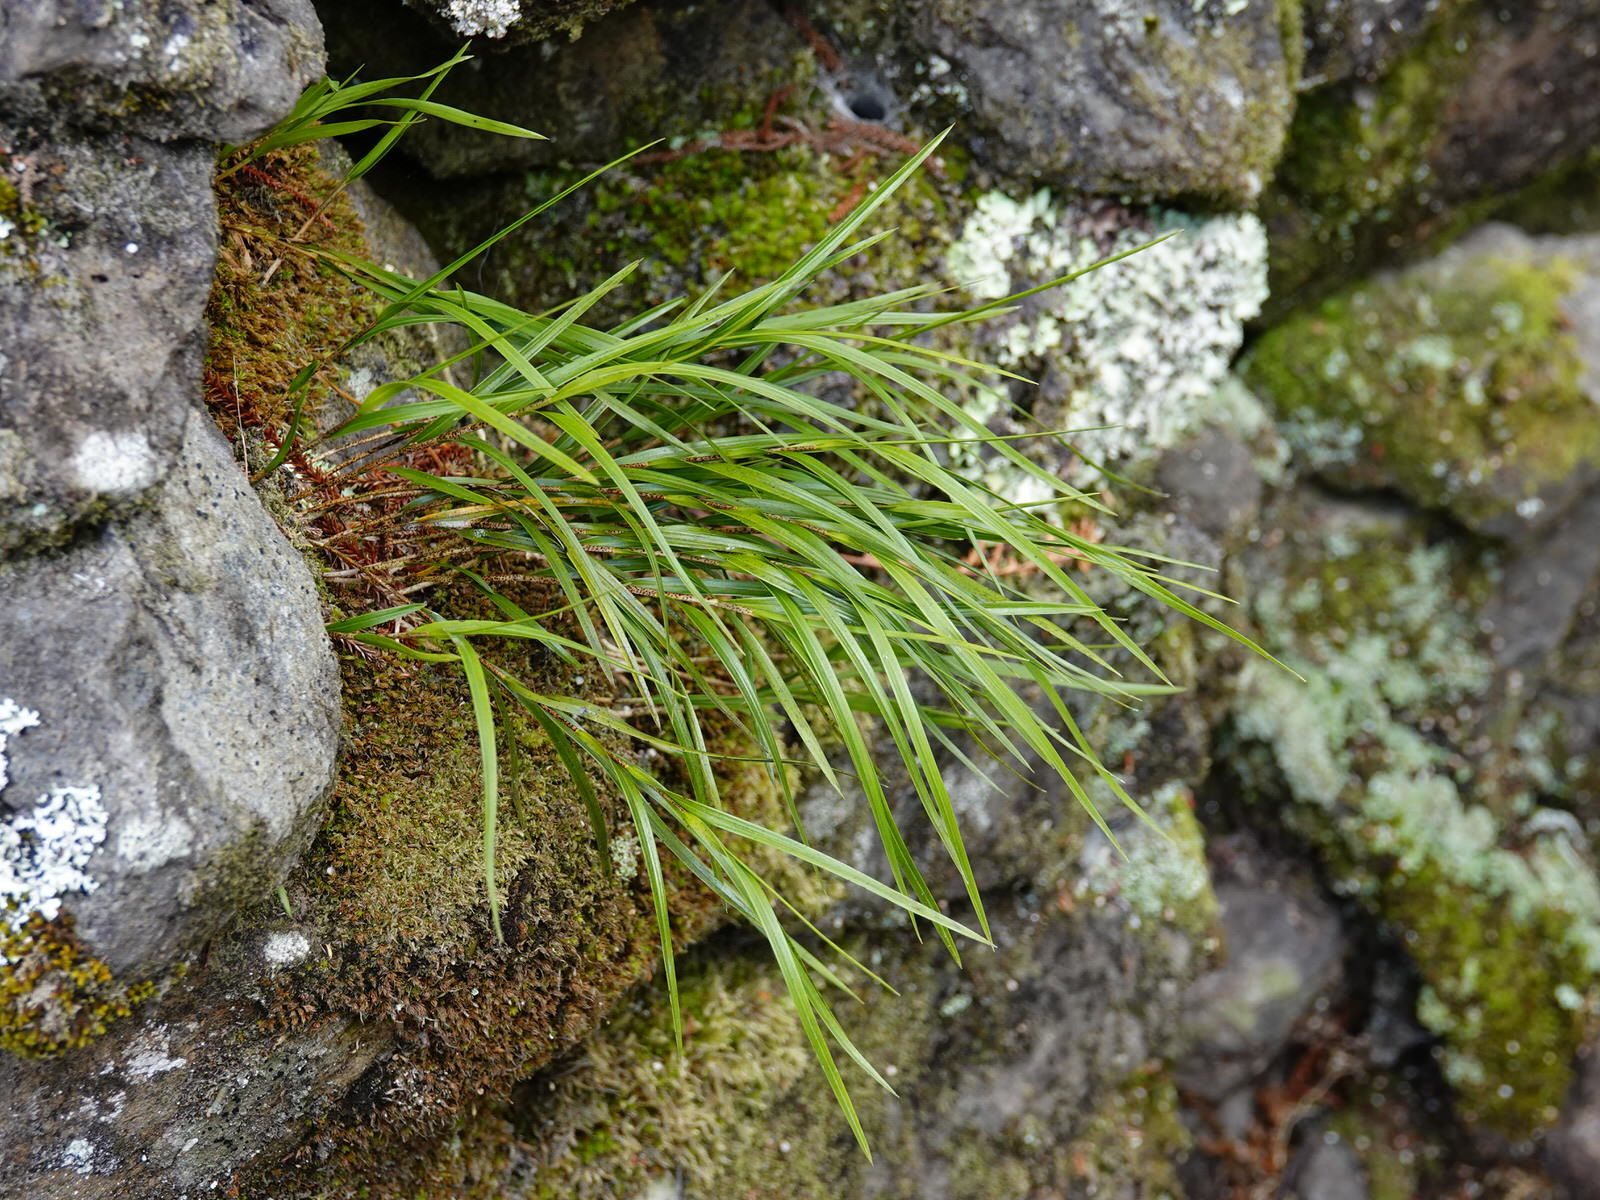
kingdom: Plantae
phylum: Tracheophyta
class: Liliopsida
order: Asparagales
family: Orchidaceae
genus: Earina
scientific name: Earina aestivalis
